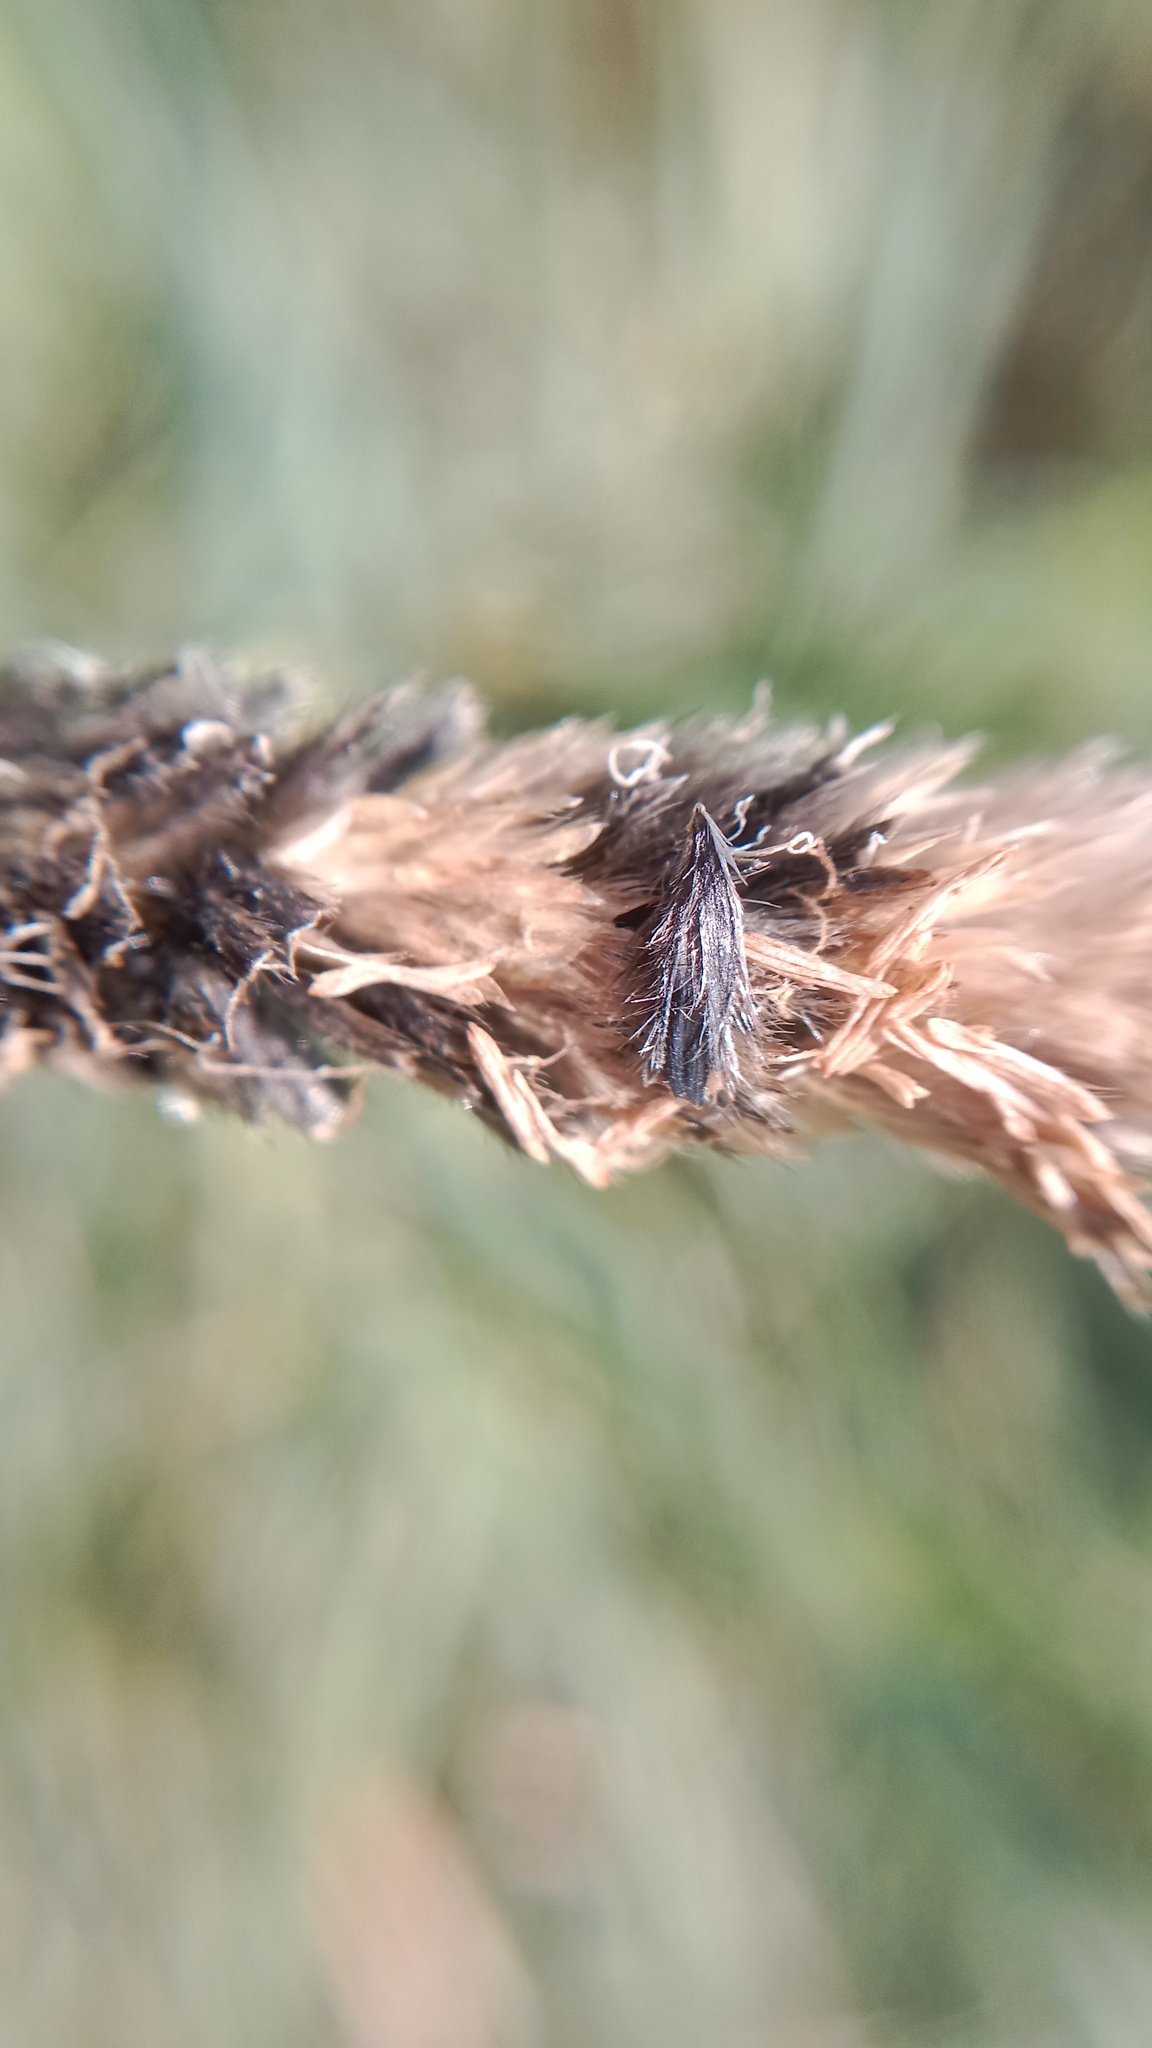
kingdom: Plantae
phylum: Tracheophyta
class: Liliopsida
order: Poales
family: Poaceae
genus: Alopecurus
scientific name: Alopecurus arundinaceus
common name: Creeping meadow foxtail
